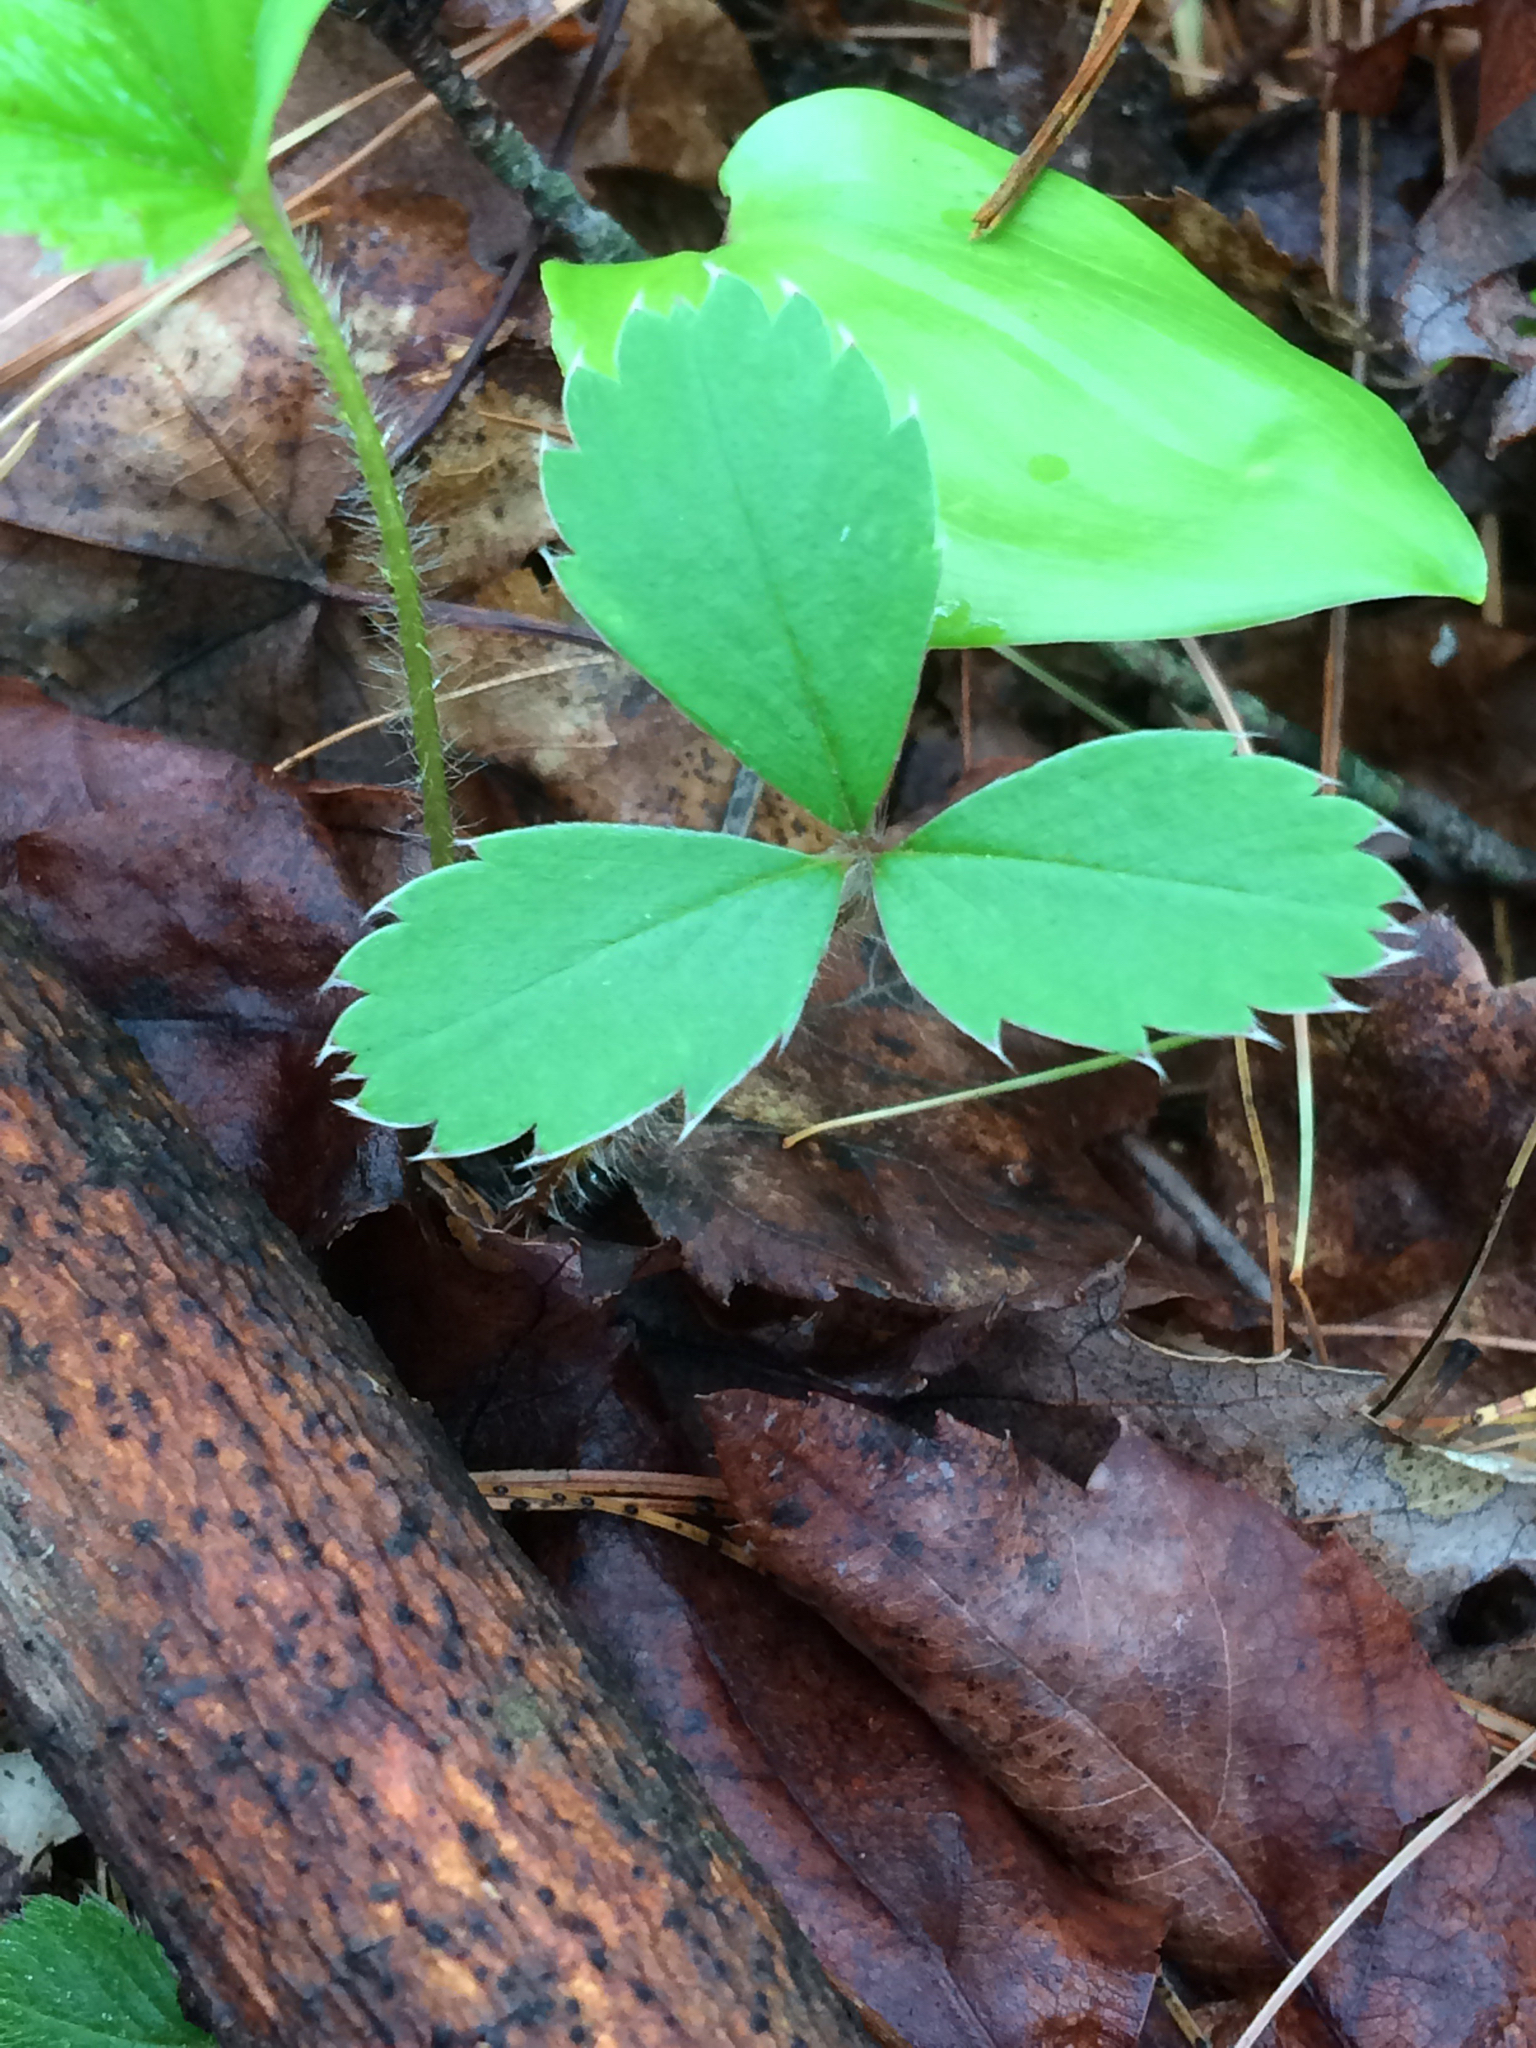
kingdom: Plantae
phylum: Tracheophyta
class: Magnoliopsida
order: Rosales
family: Rosaceae
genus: Fragaria
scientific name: Fragaria virginiana
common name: Thickleaved wild strawberry
